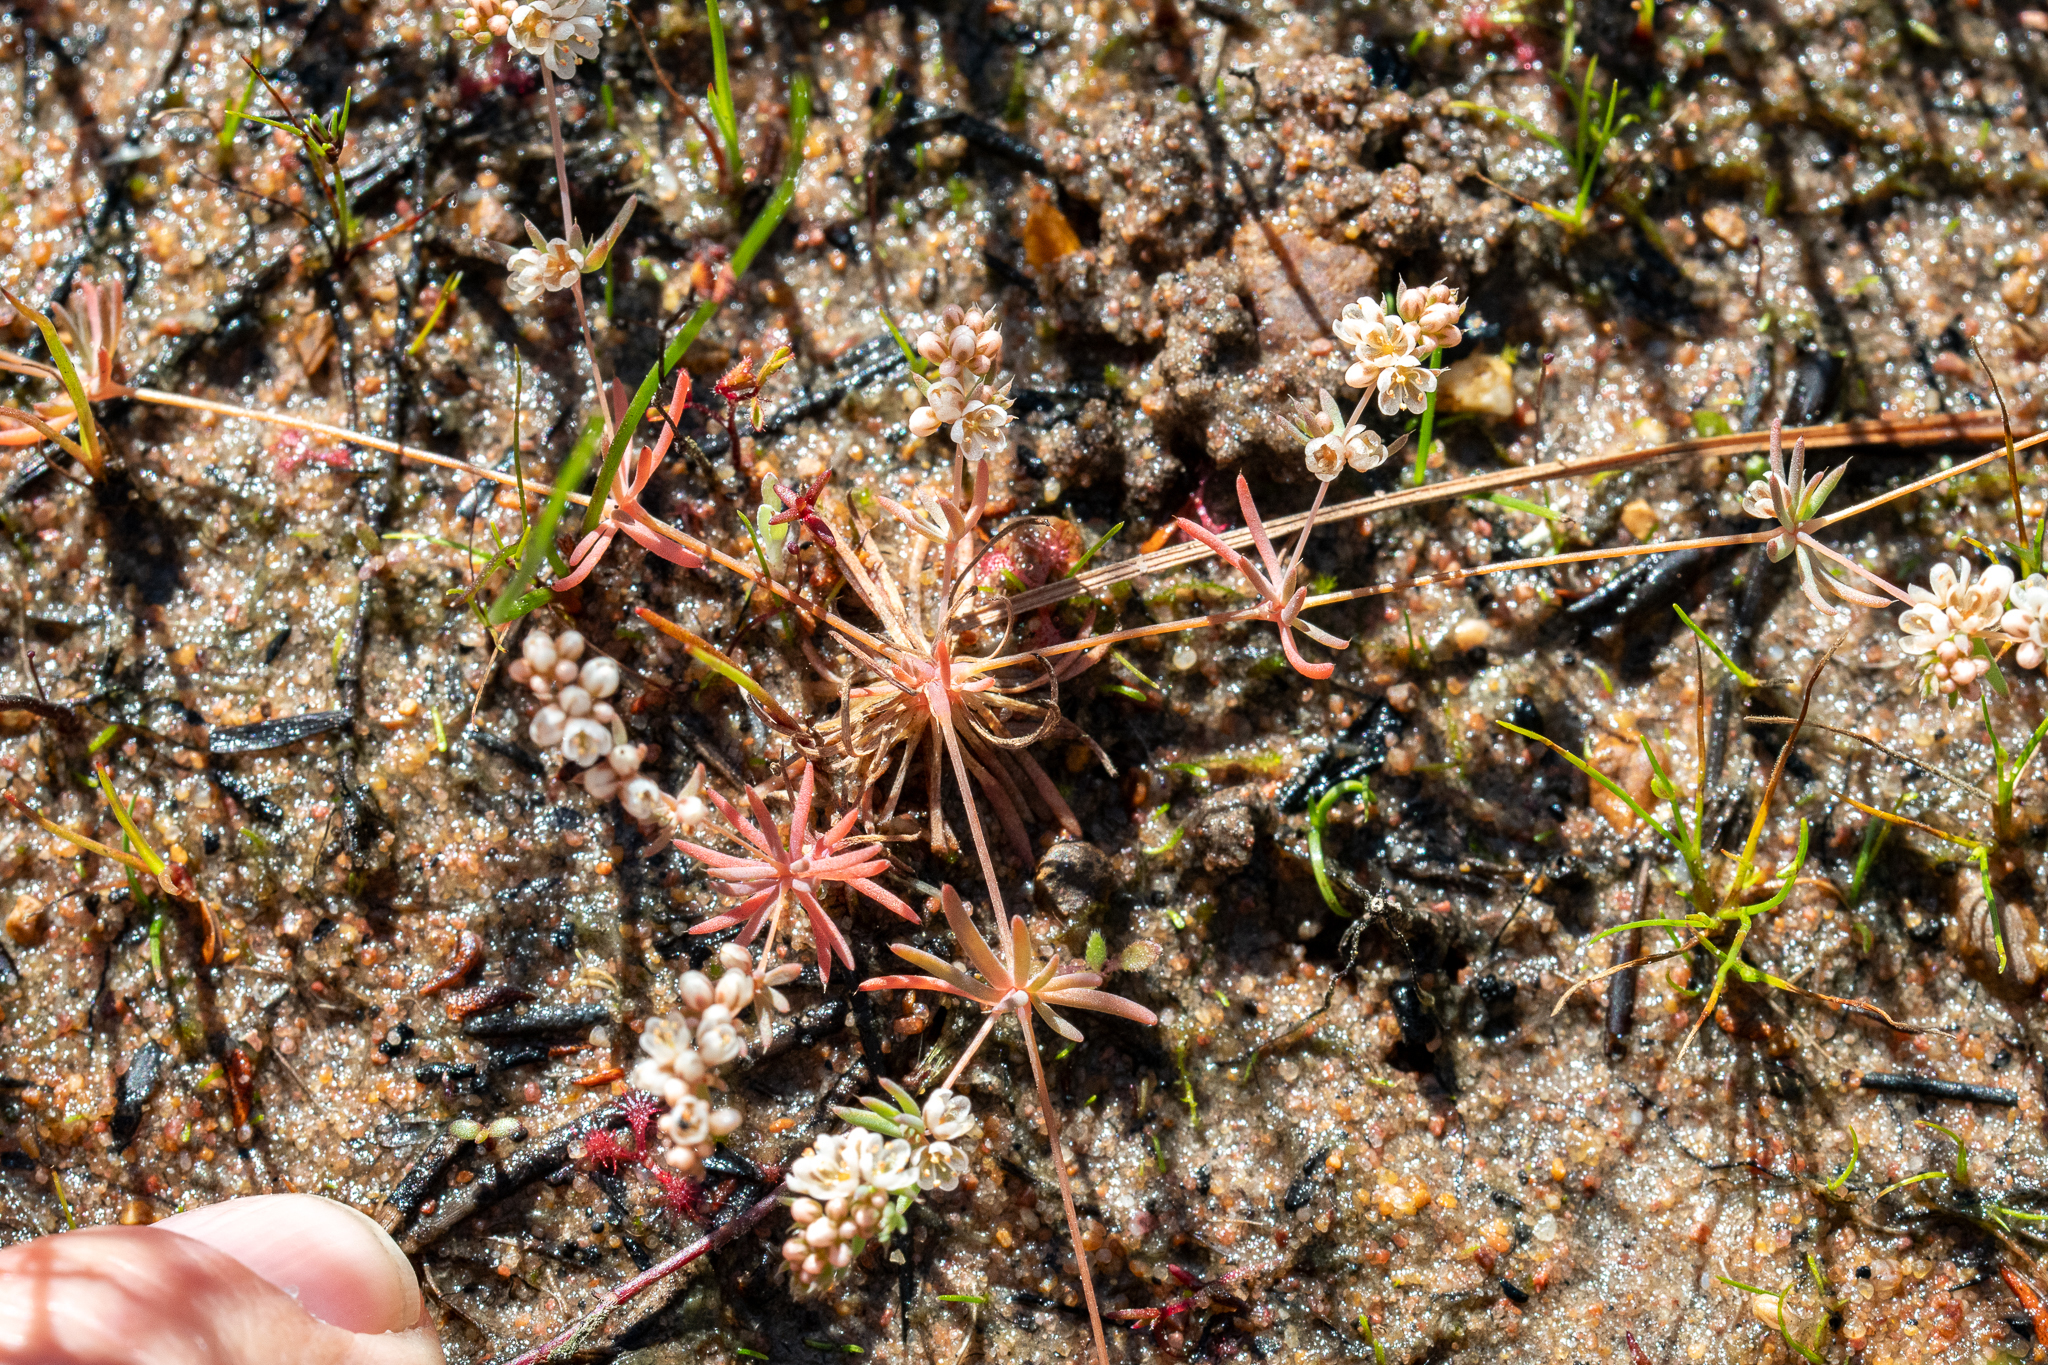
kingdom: Plantae
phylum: Tracheophyta
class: Magnoliopsida
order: Caryophyllales
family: Molluginaceae
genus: Adenogramma
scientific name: Adenogramma glomerata
